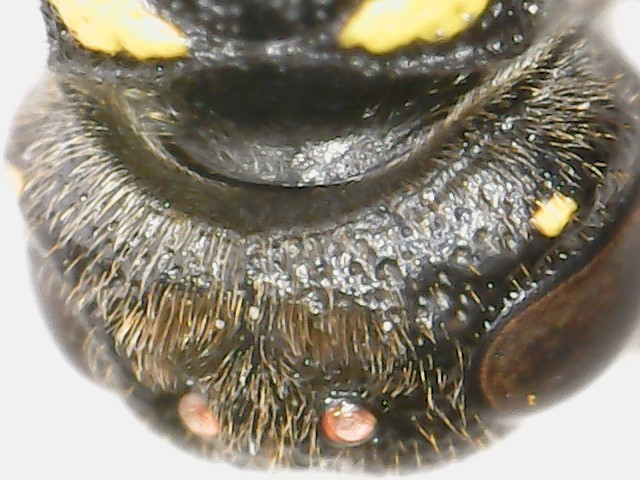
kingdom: Animalia
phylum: Arthropoda
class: Insecta
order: Hymenoptera
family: Eumenidae
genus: Symmorphus
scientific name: Symmorphus canadensis
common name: Canadian potter wasp
